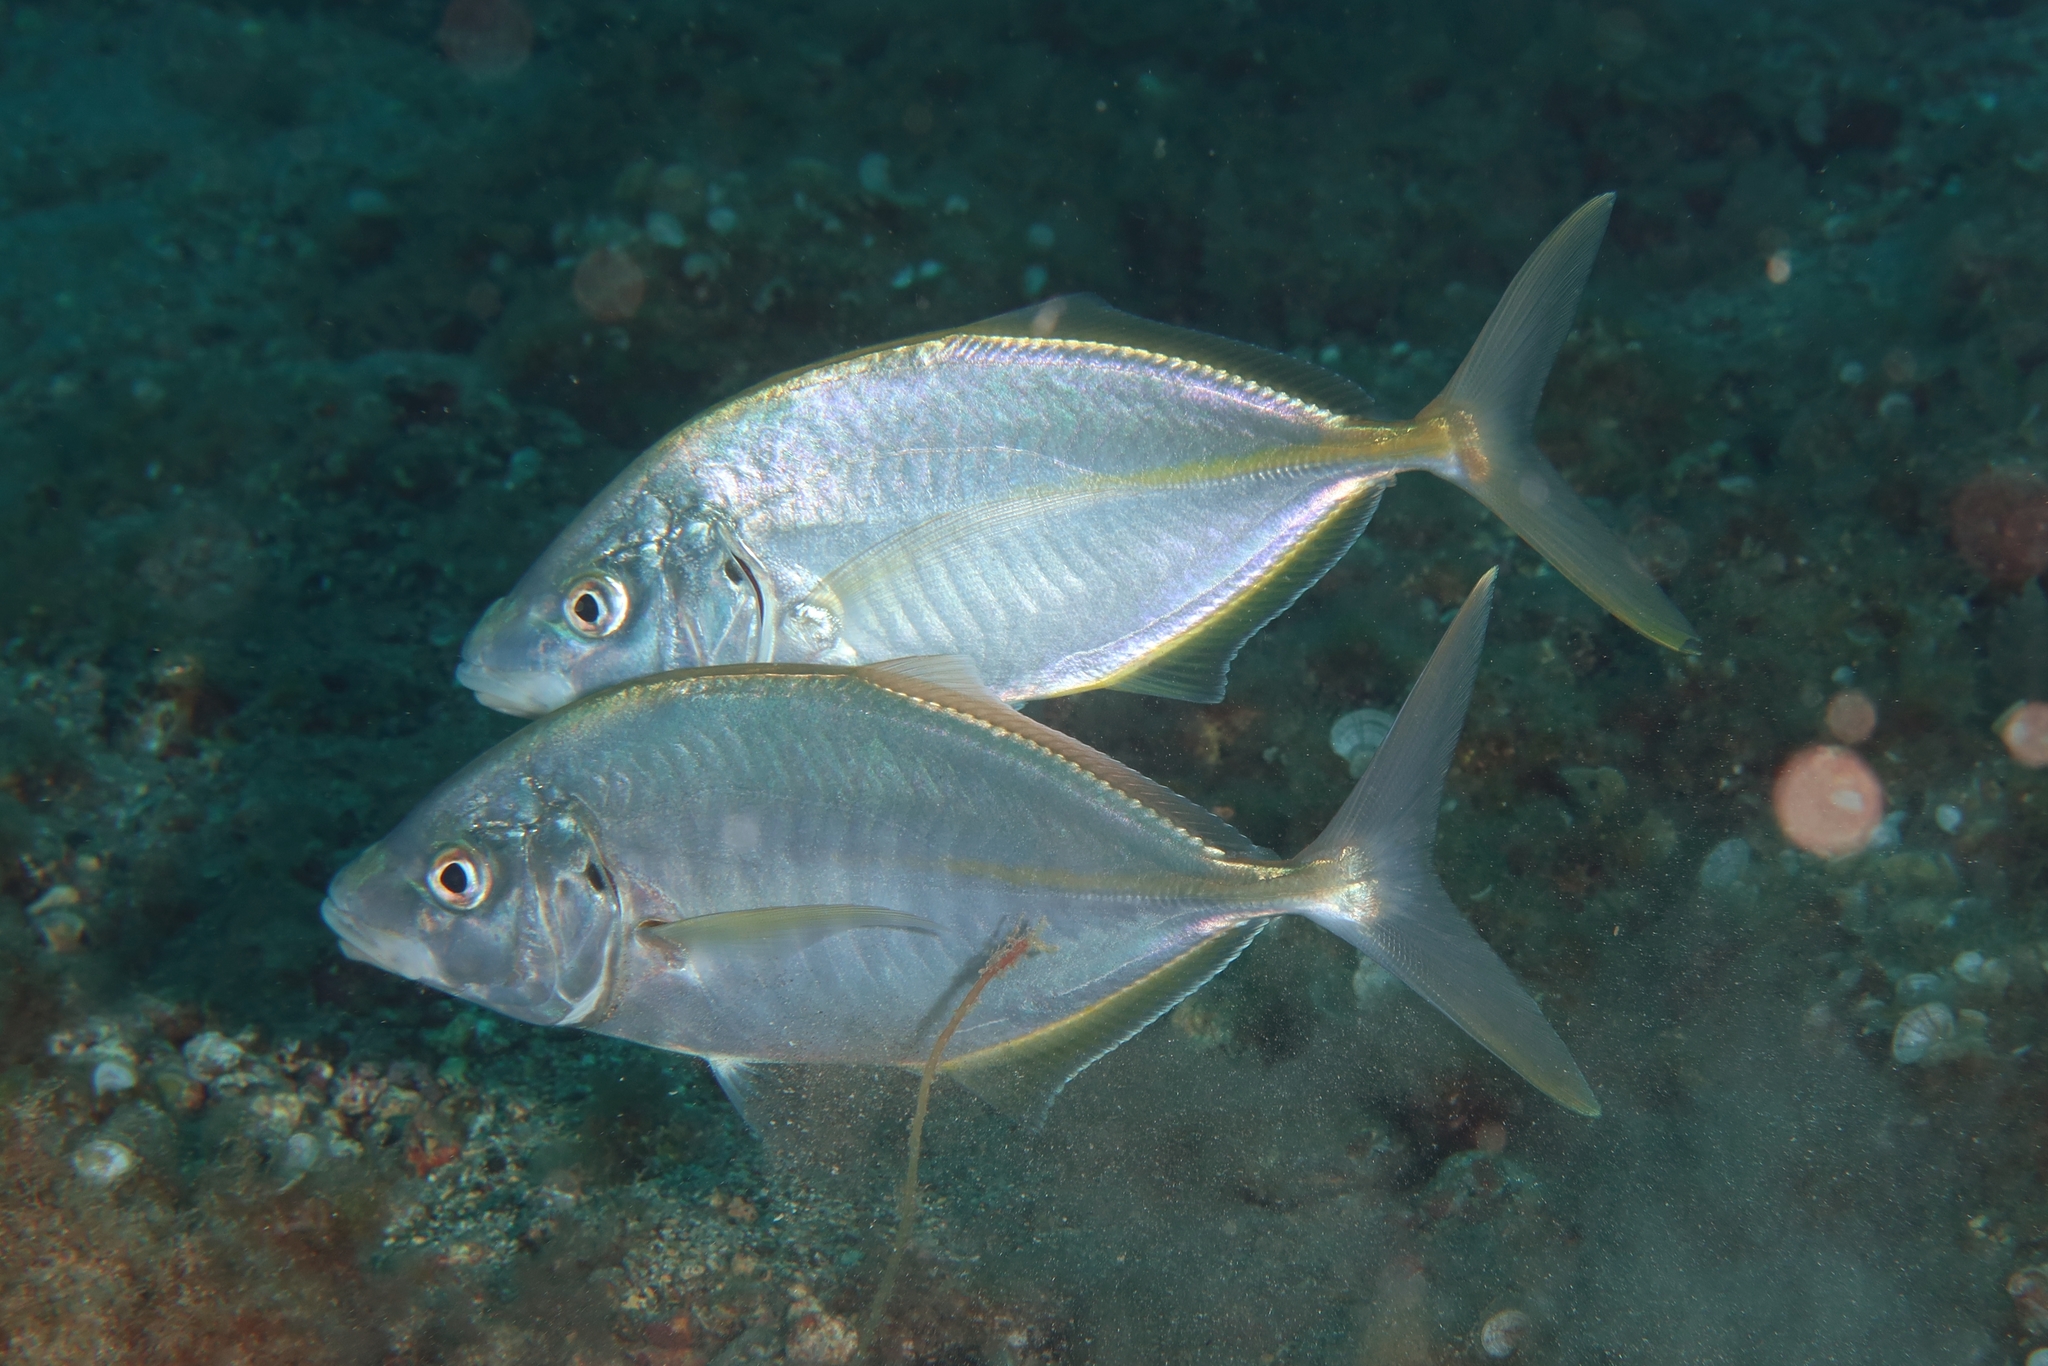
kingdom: Animalia
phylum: Chordata
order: Perciformes
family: Carangidae
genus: Pseudocaranx
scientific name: Pseudocaranx dentex
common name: White trevally
